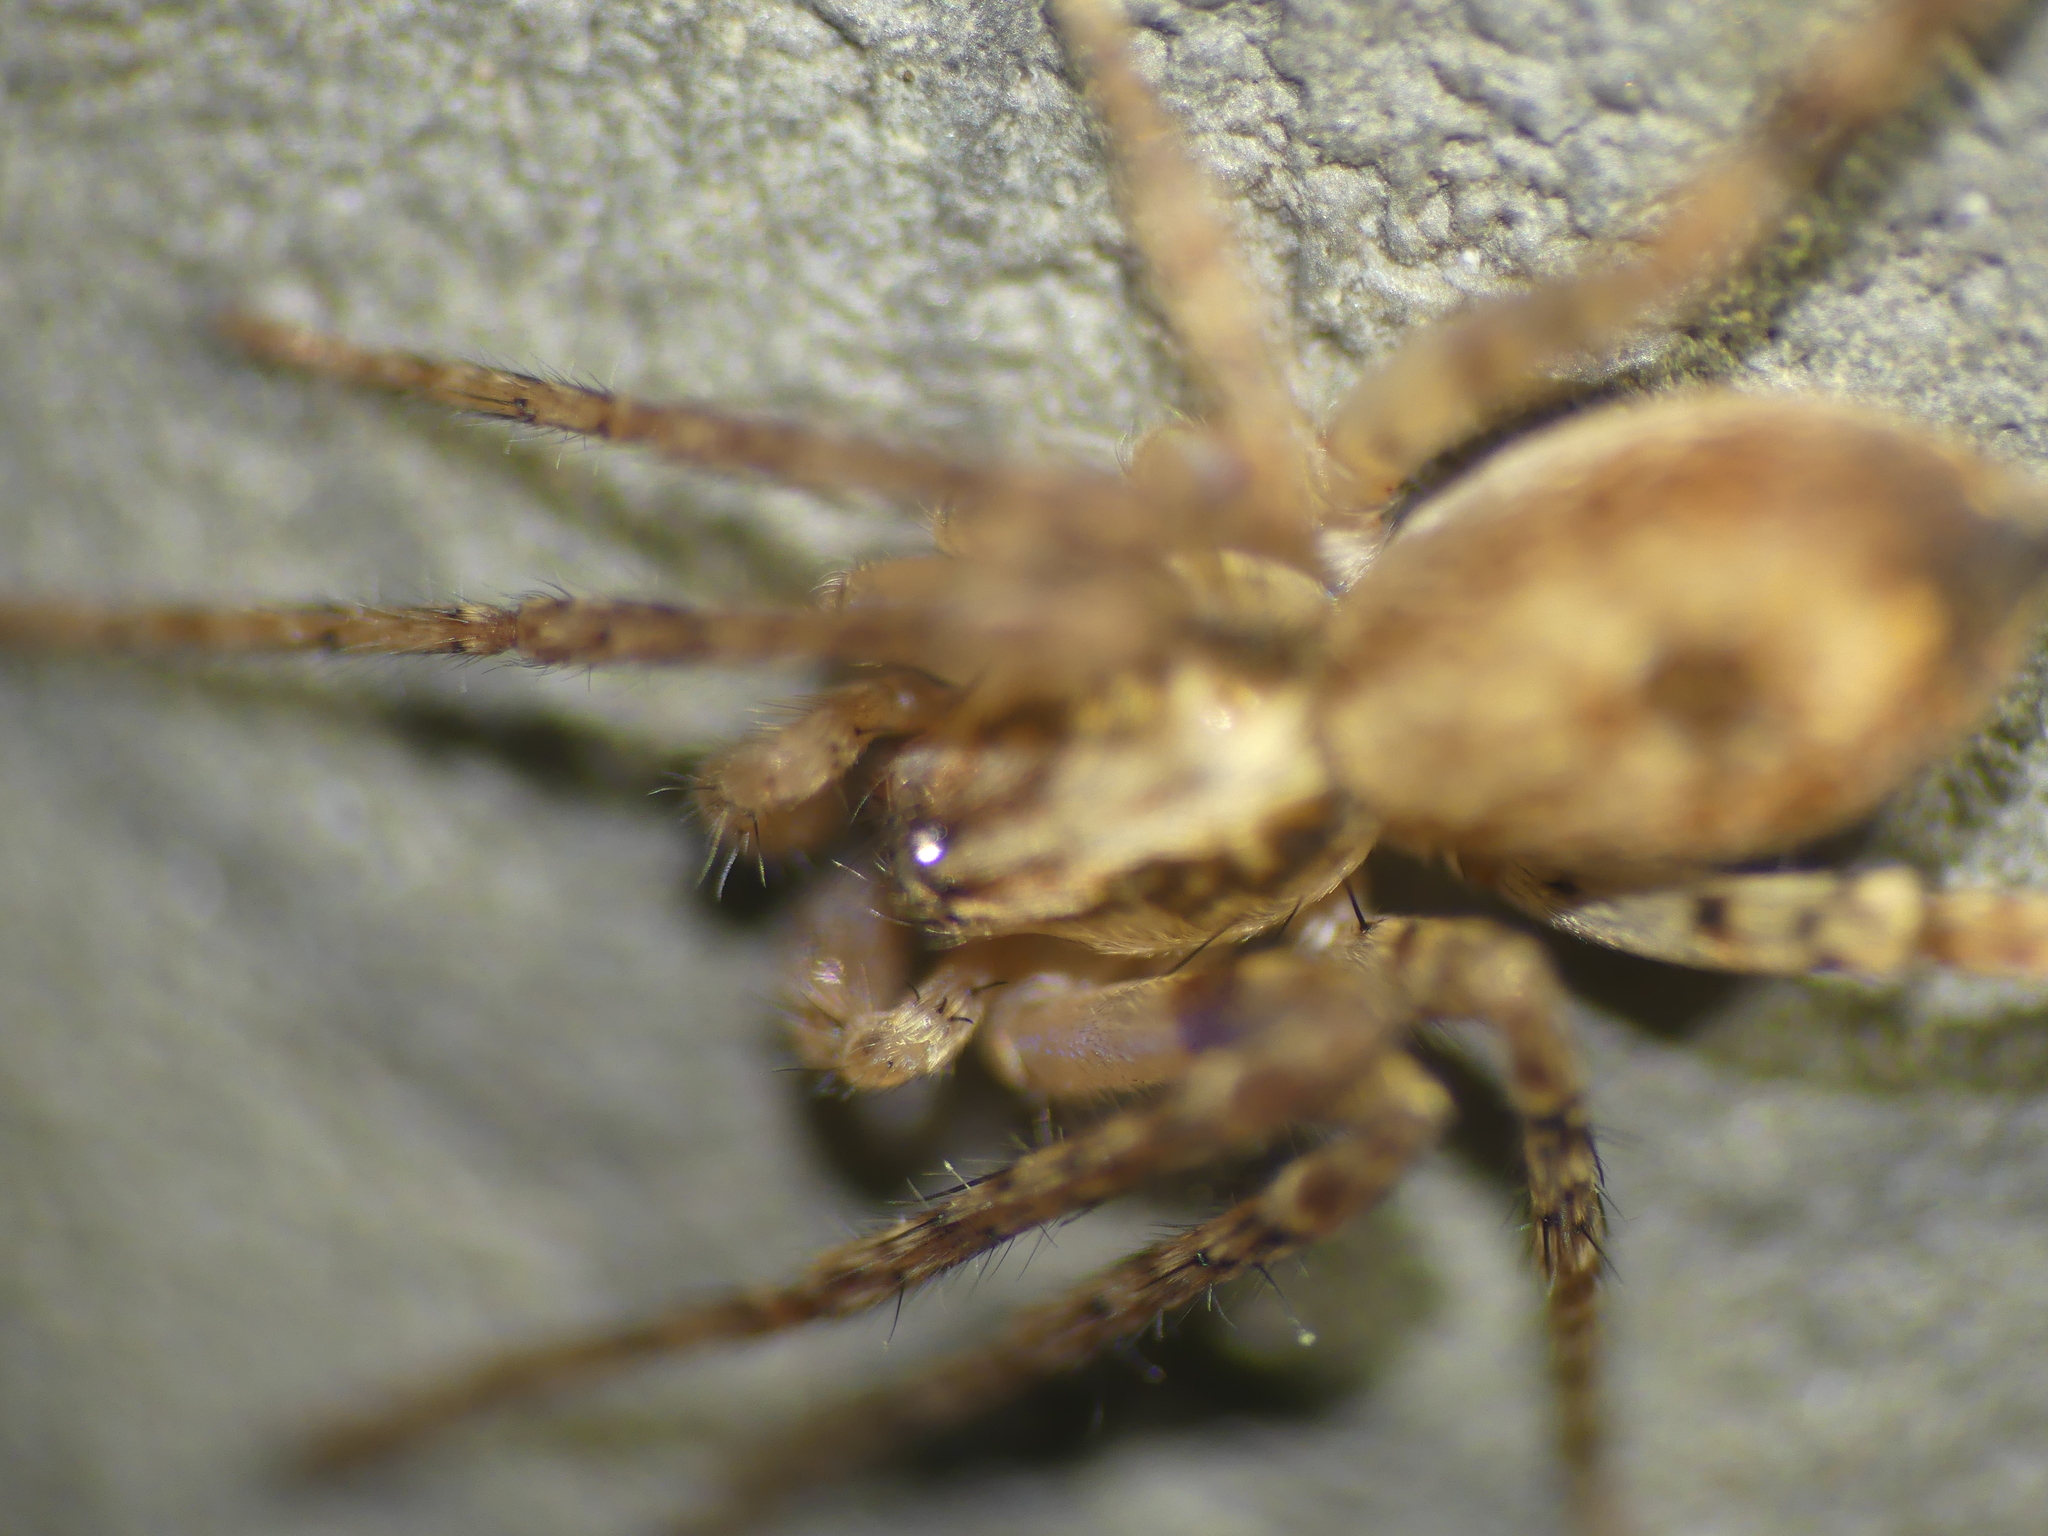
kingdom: Animalia
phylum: Arthropoda
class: Arachnida
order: Araneae
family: Anyphaenidae
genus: Anyphaena
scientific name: Anyphaena accentuata
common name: Buzzing spider
